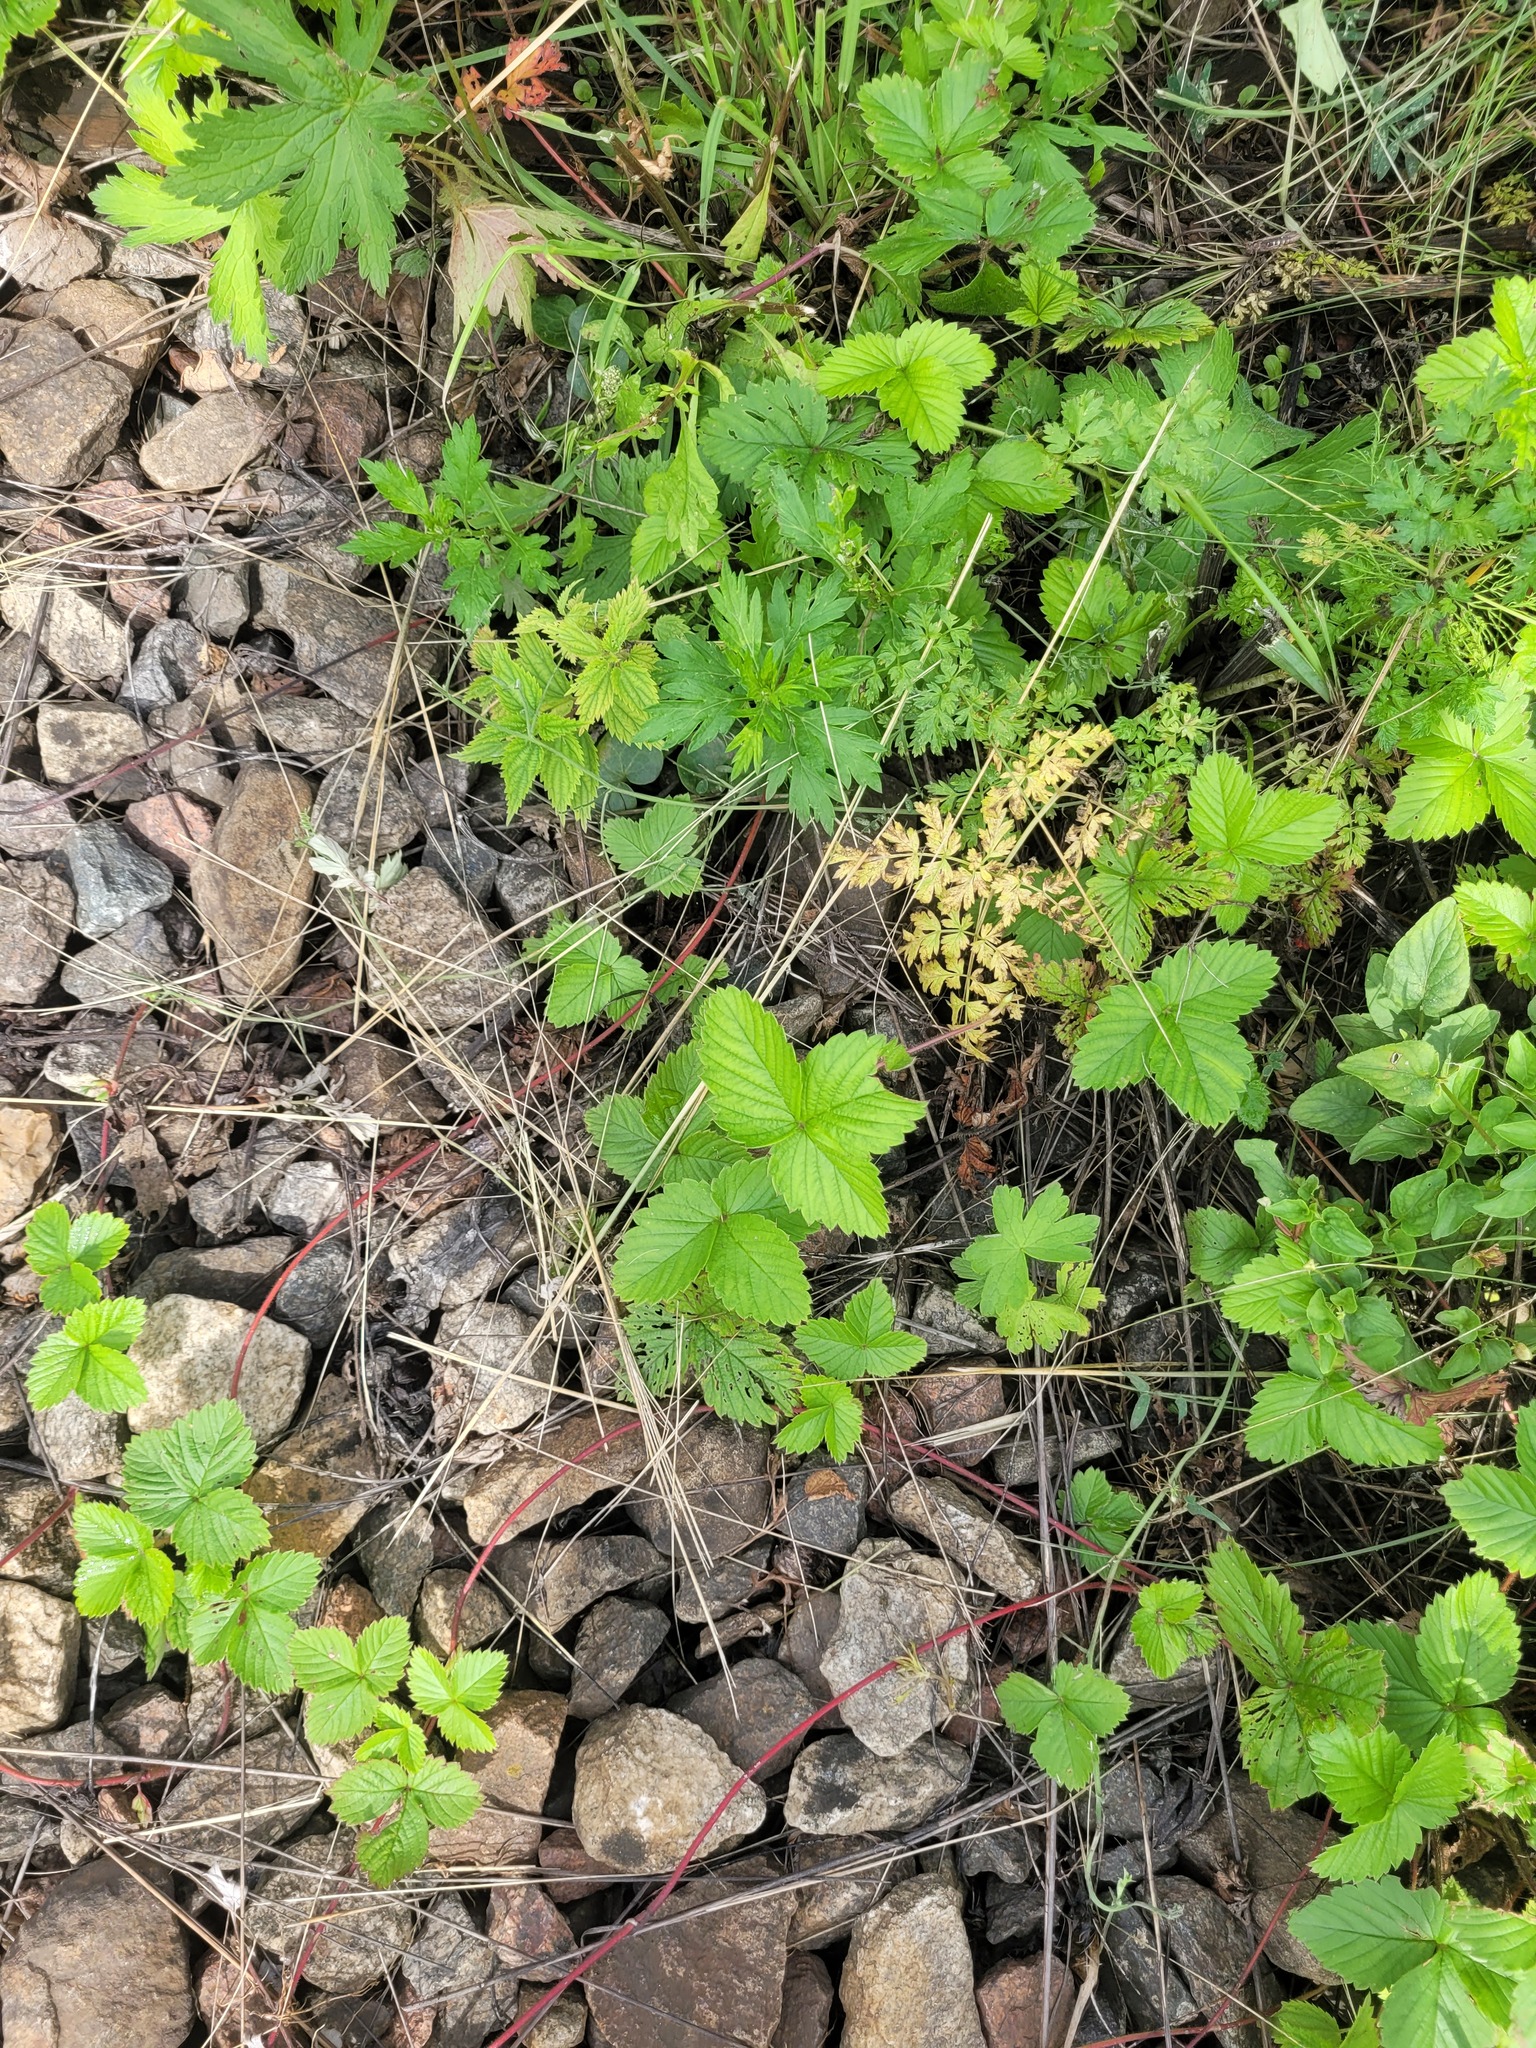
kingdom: Plantae
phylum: Tracheophyta
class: Magnoliopsida
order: Rosales
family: Rosaceae
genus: Fragaria
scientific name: Fragaria vesca
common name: Wild strawberry
